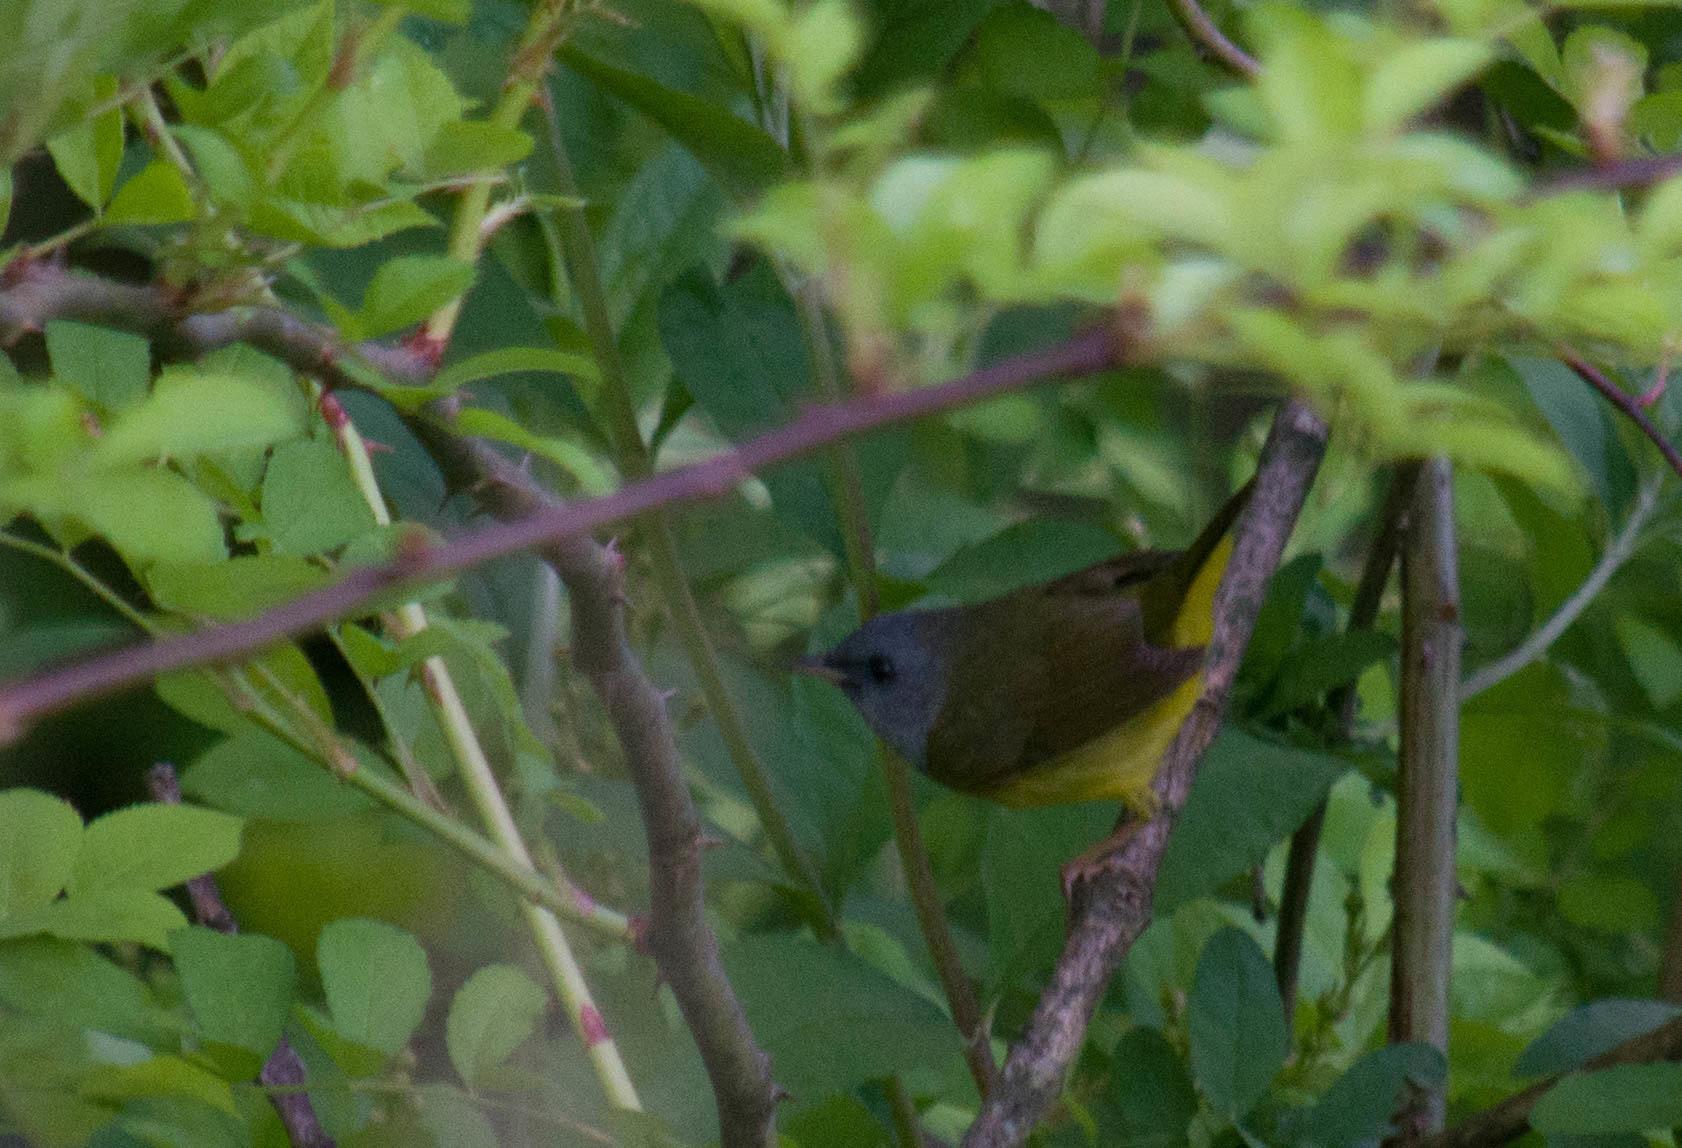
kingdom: Animalia
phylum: Chordata
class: Aves
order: Passeriformes
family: Parulidae
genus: Geothlypis
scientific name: Geothlypis philadelphia
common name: Mourning warbler
